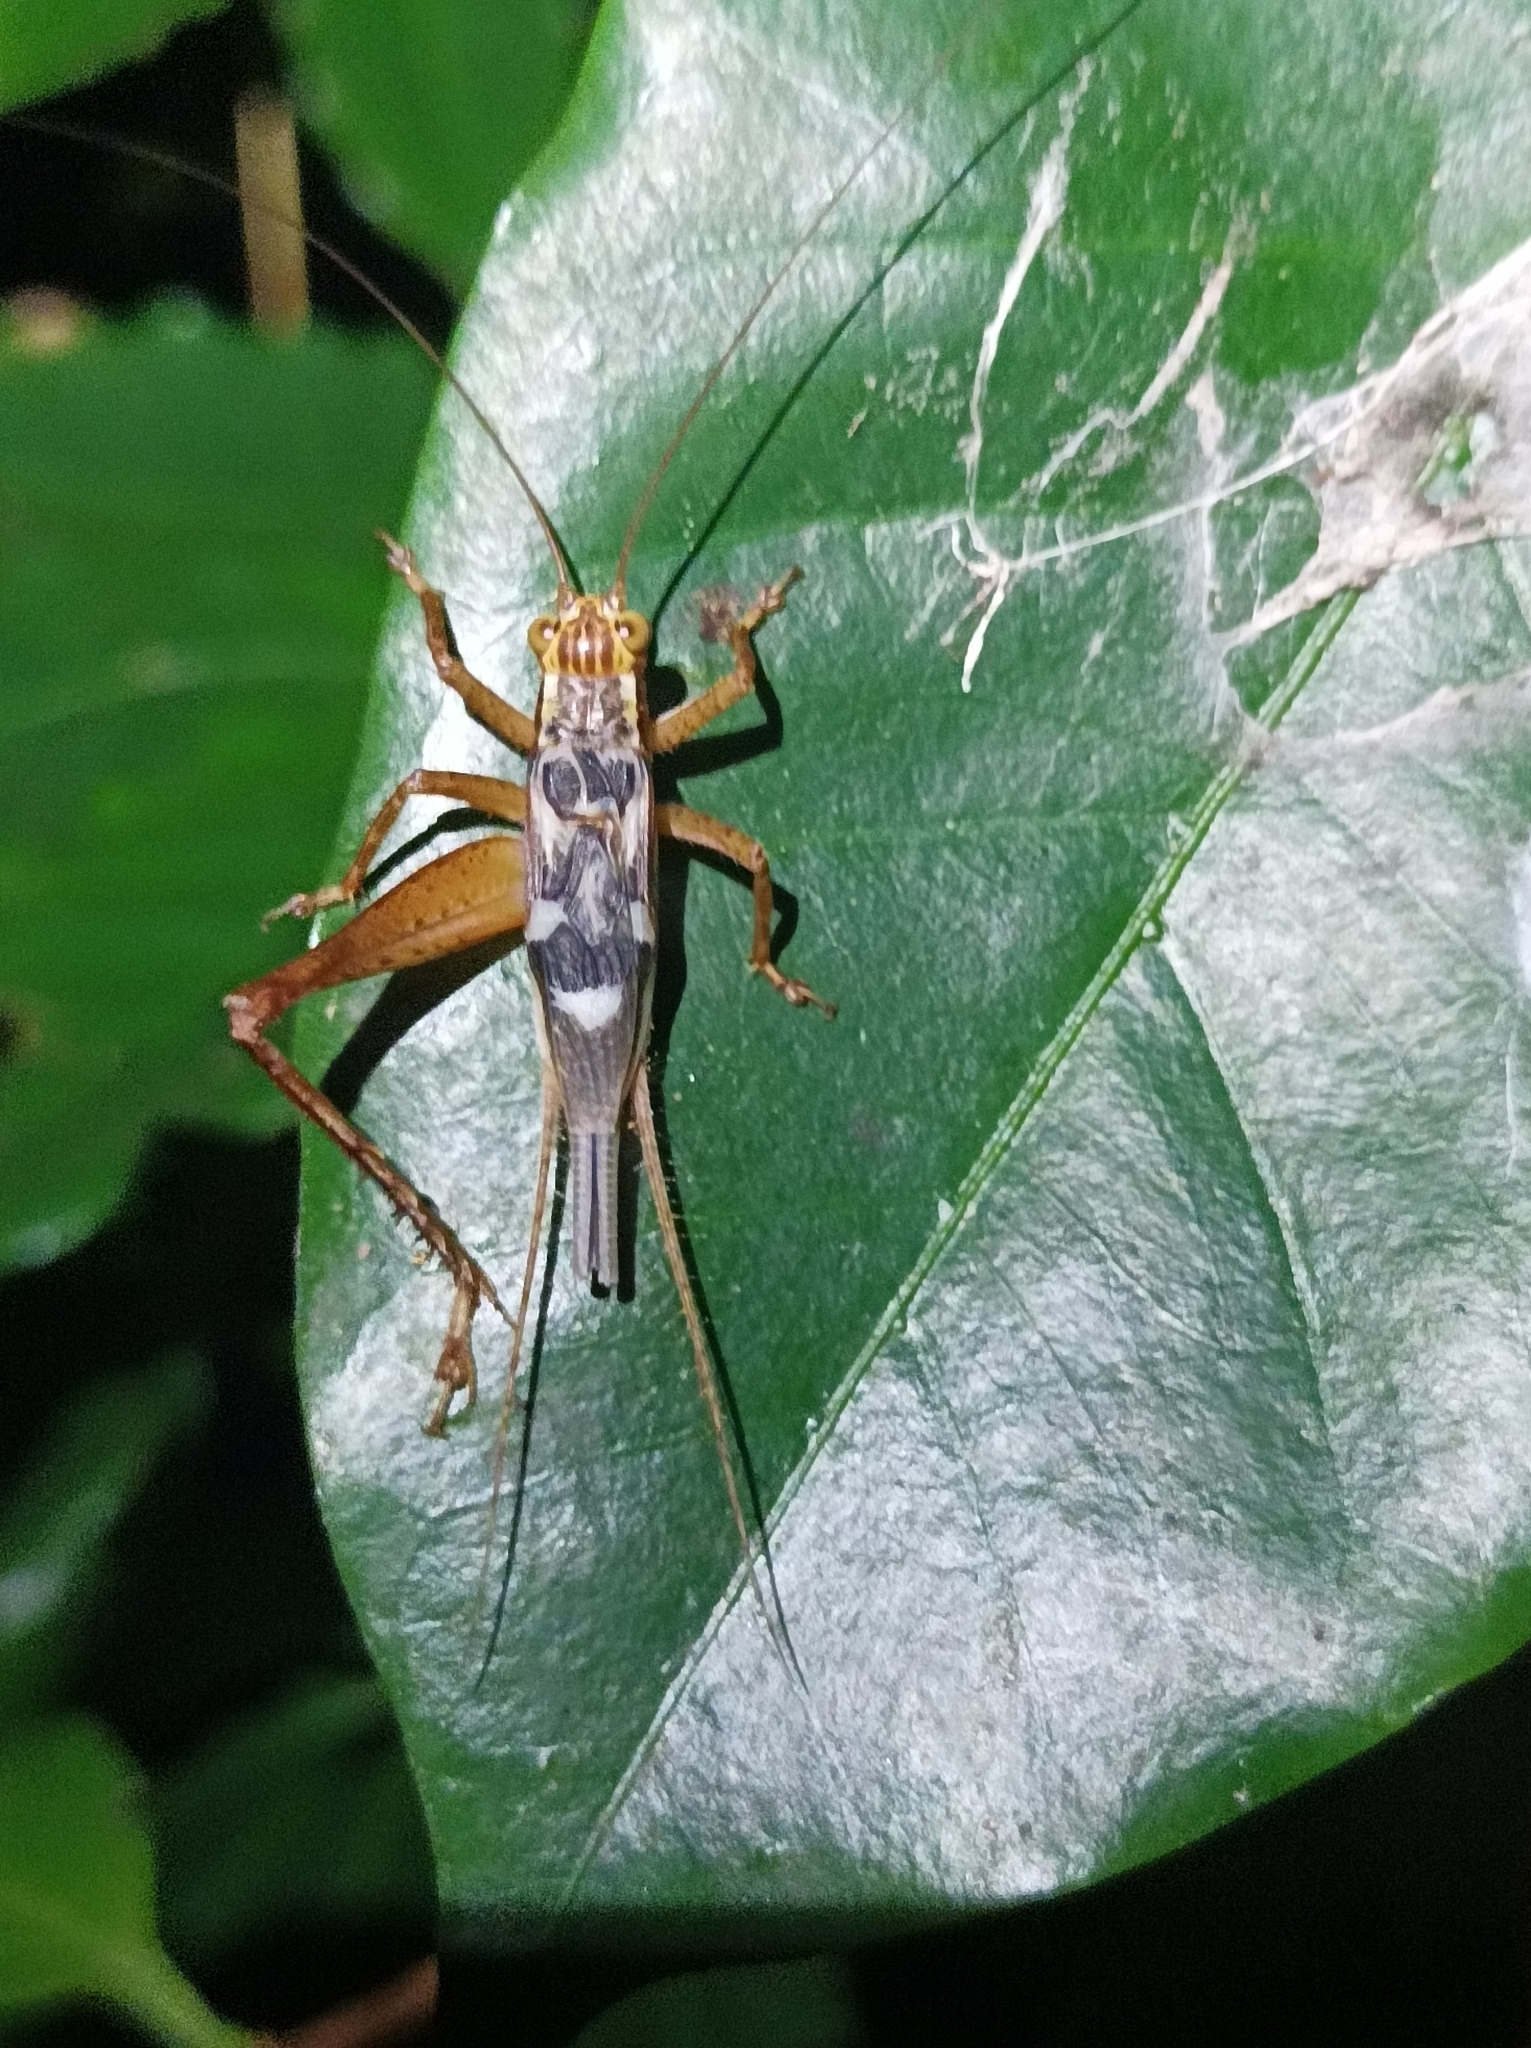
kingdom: Animalia
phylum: Arthropoda
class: Insecta
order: Orthoptera
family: Gryllidae
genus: Cardiodactylus
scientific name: Cardiodactylus novaeguineae
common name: Sad cricket
